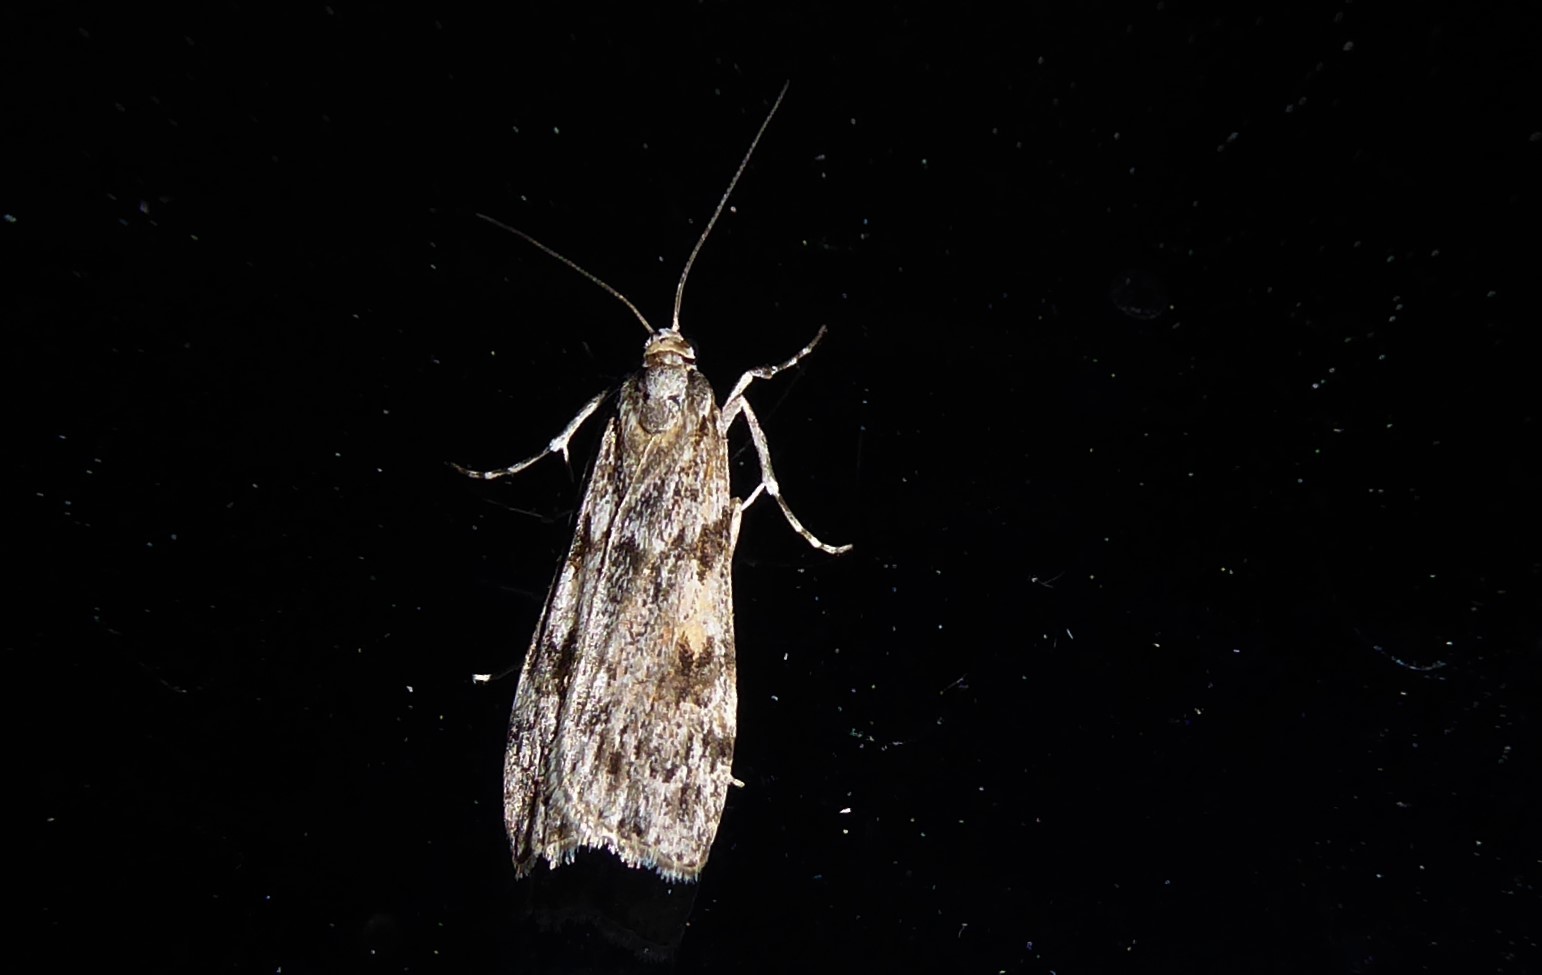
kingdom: Animalia
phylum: Arthropoda
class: Insecta
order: Lepidoptera
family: Crambidae
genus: Scoparia
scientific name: Scoparia halopis
